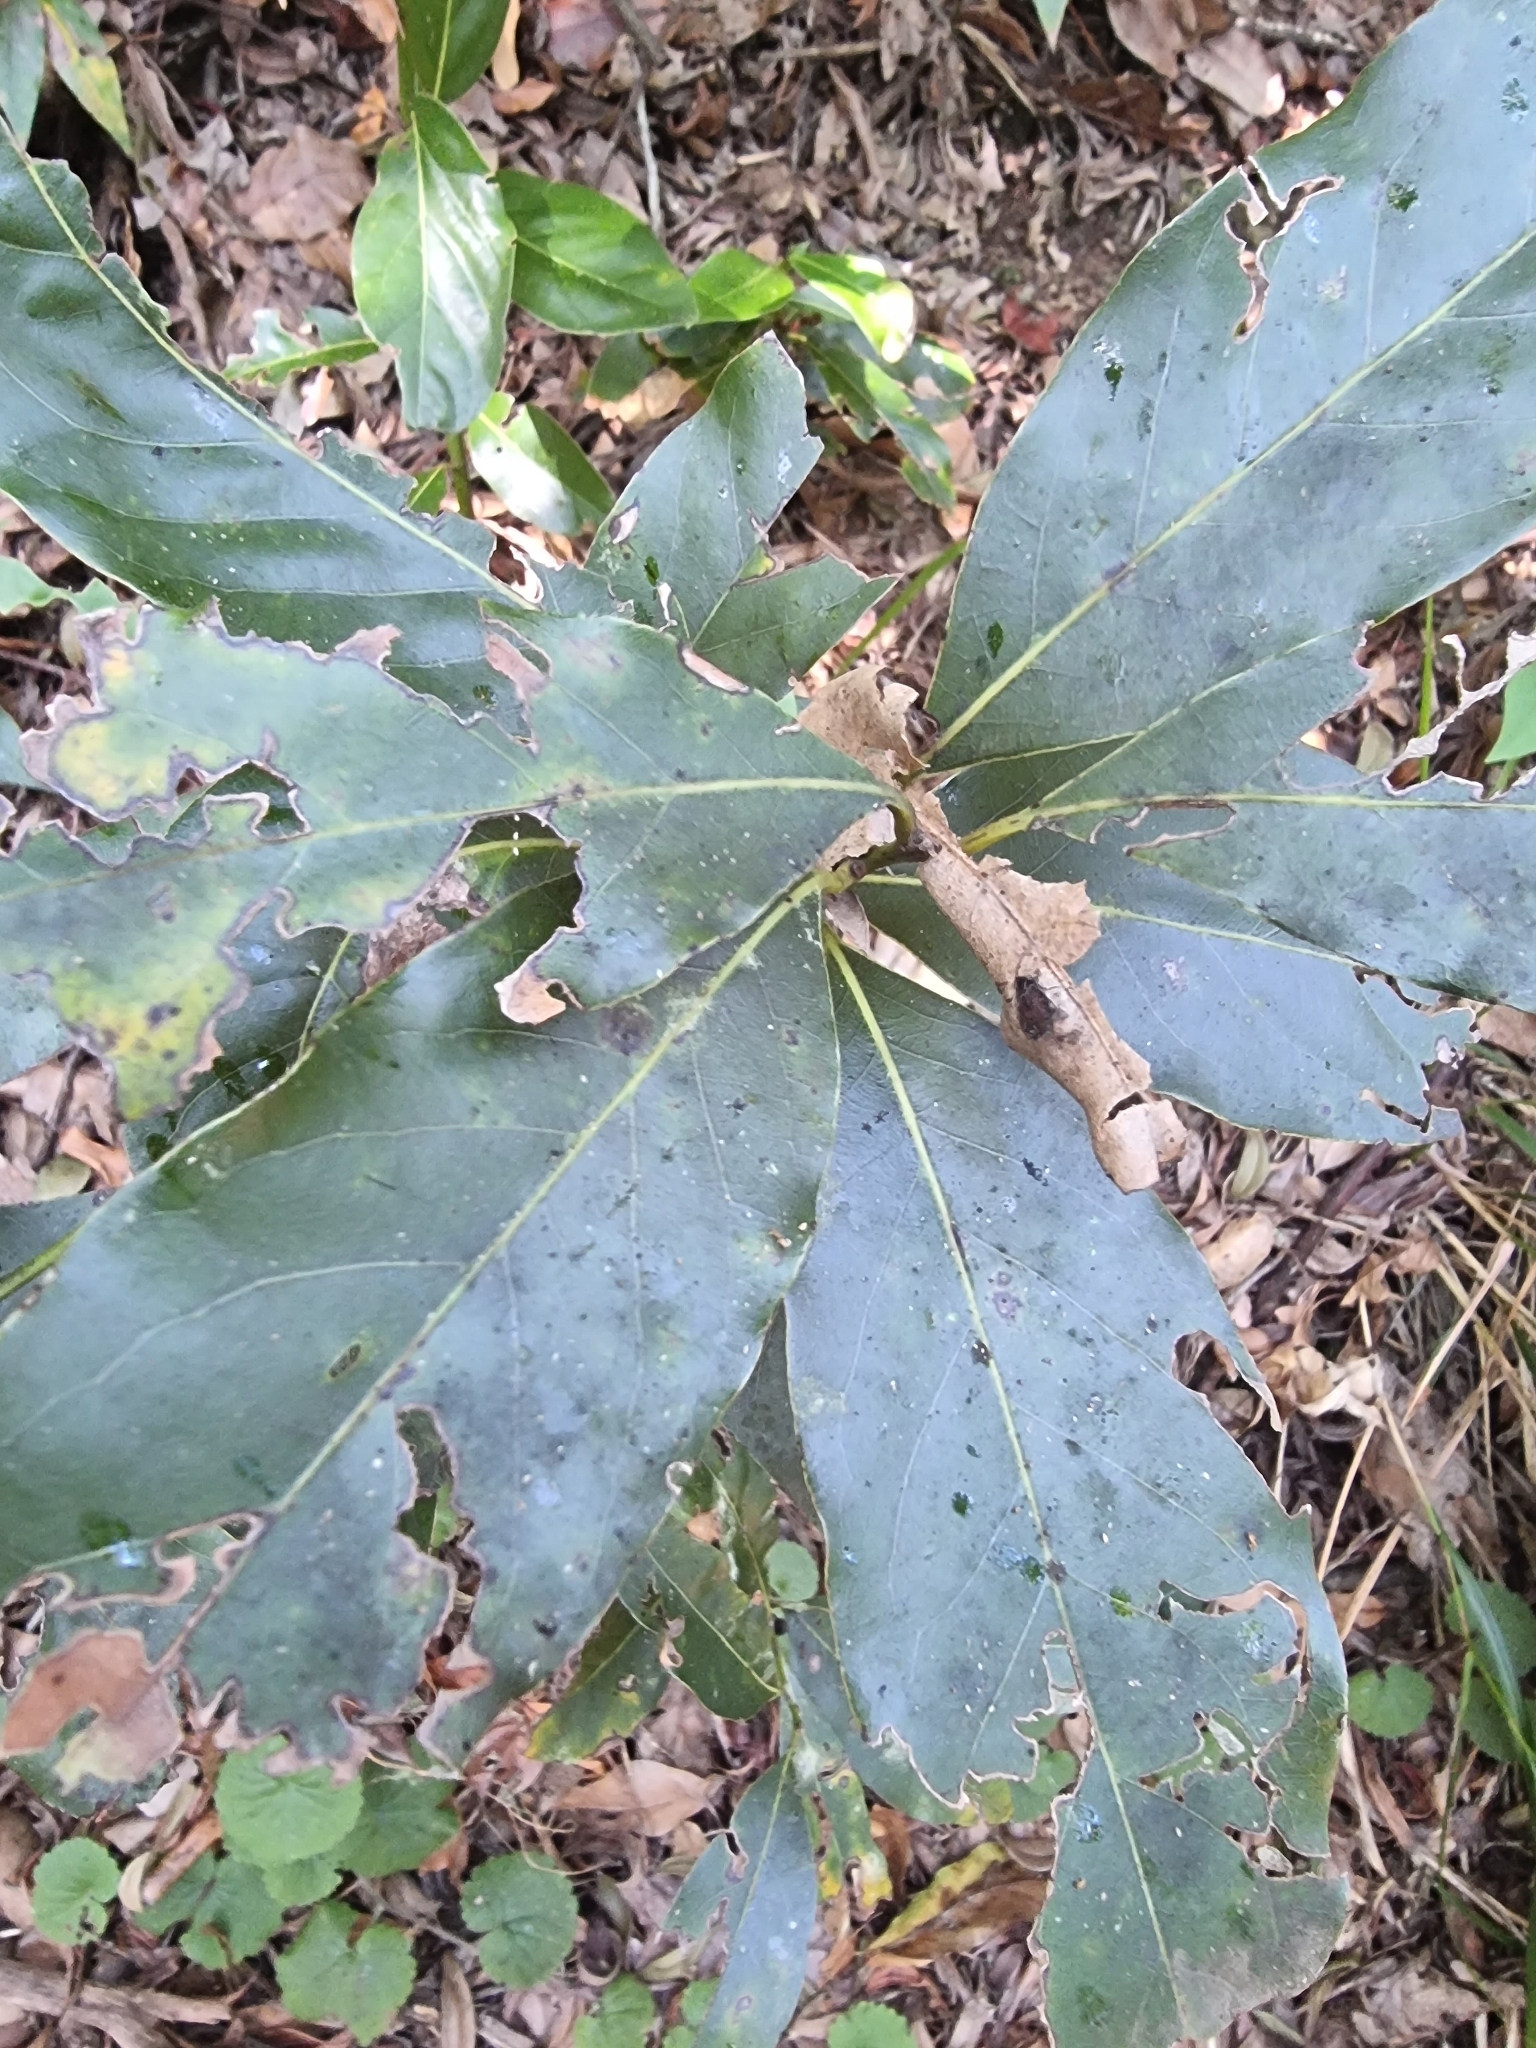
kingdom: Plantae
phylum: Tracheophyta
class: Magnoliopsida
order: Laurales
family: Lauraceae
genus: Laurus
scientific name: Laurus novocanariensis
